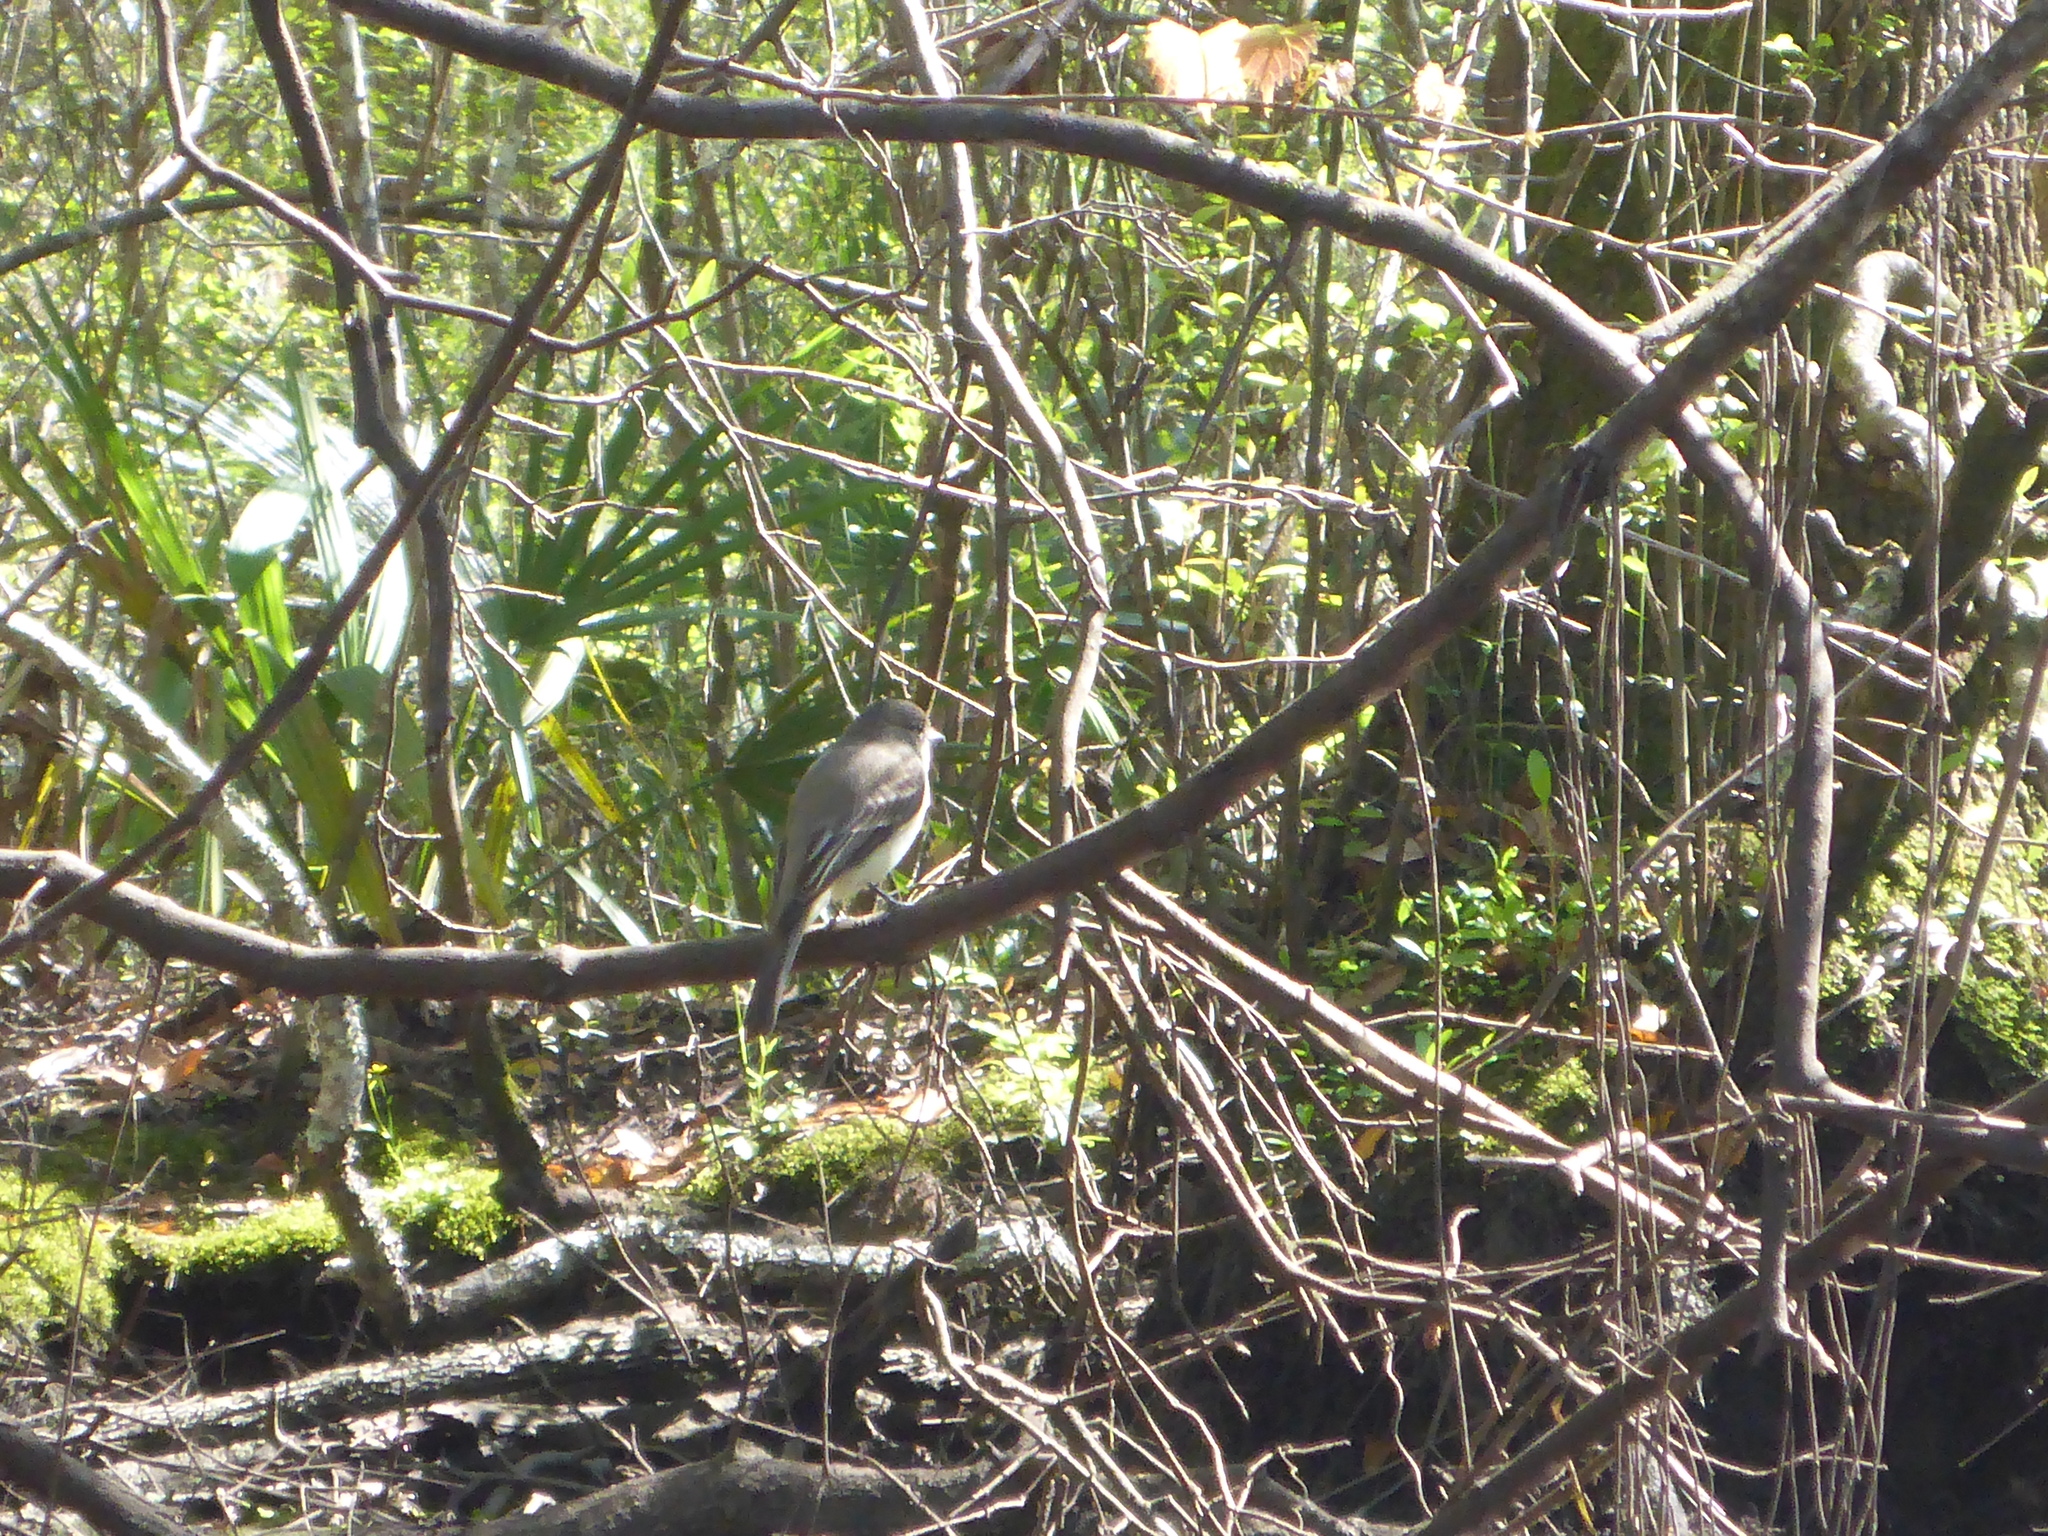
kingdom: Animalia
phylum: Chordata
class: Aves
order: Passeriformes
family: Tyrannidae
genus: Sayornis
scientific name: Sayornis phoebe
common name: Eastern phoebe
